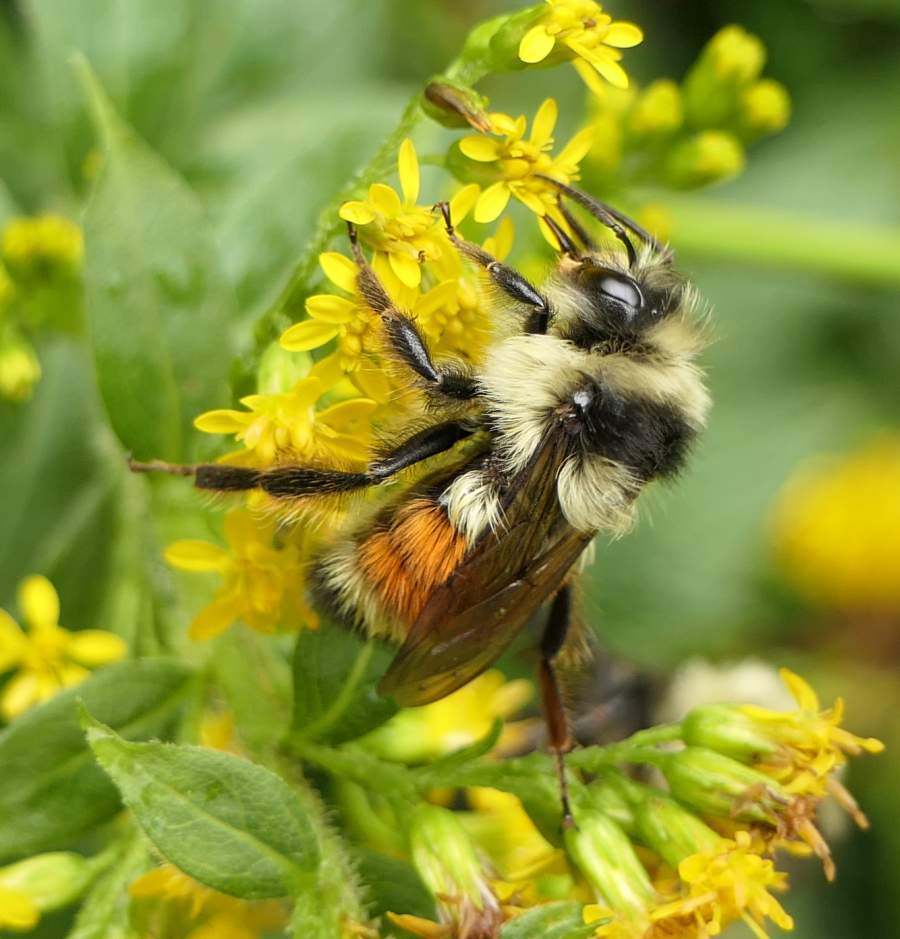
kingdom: Animalia
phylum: Arthropoda
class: Insecta
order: Hymenoptera
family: Apidae
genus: Bombus
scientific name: Bombus ternarius
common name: Tri-colored bumble bee
